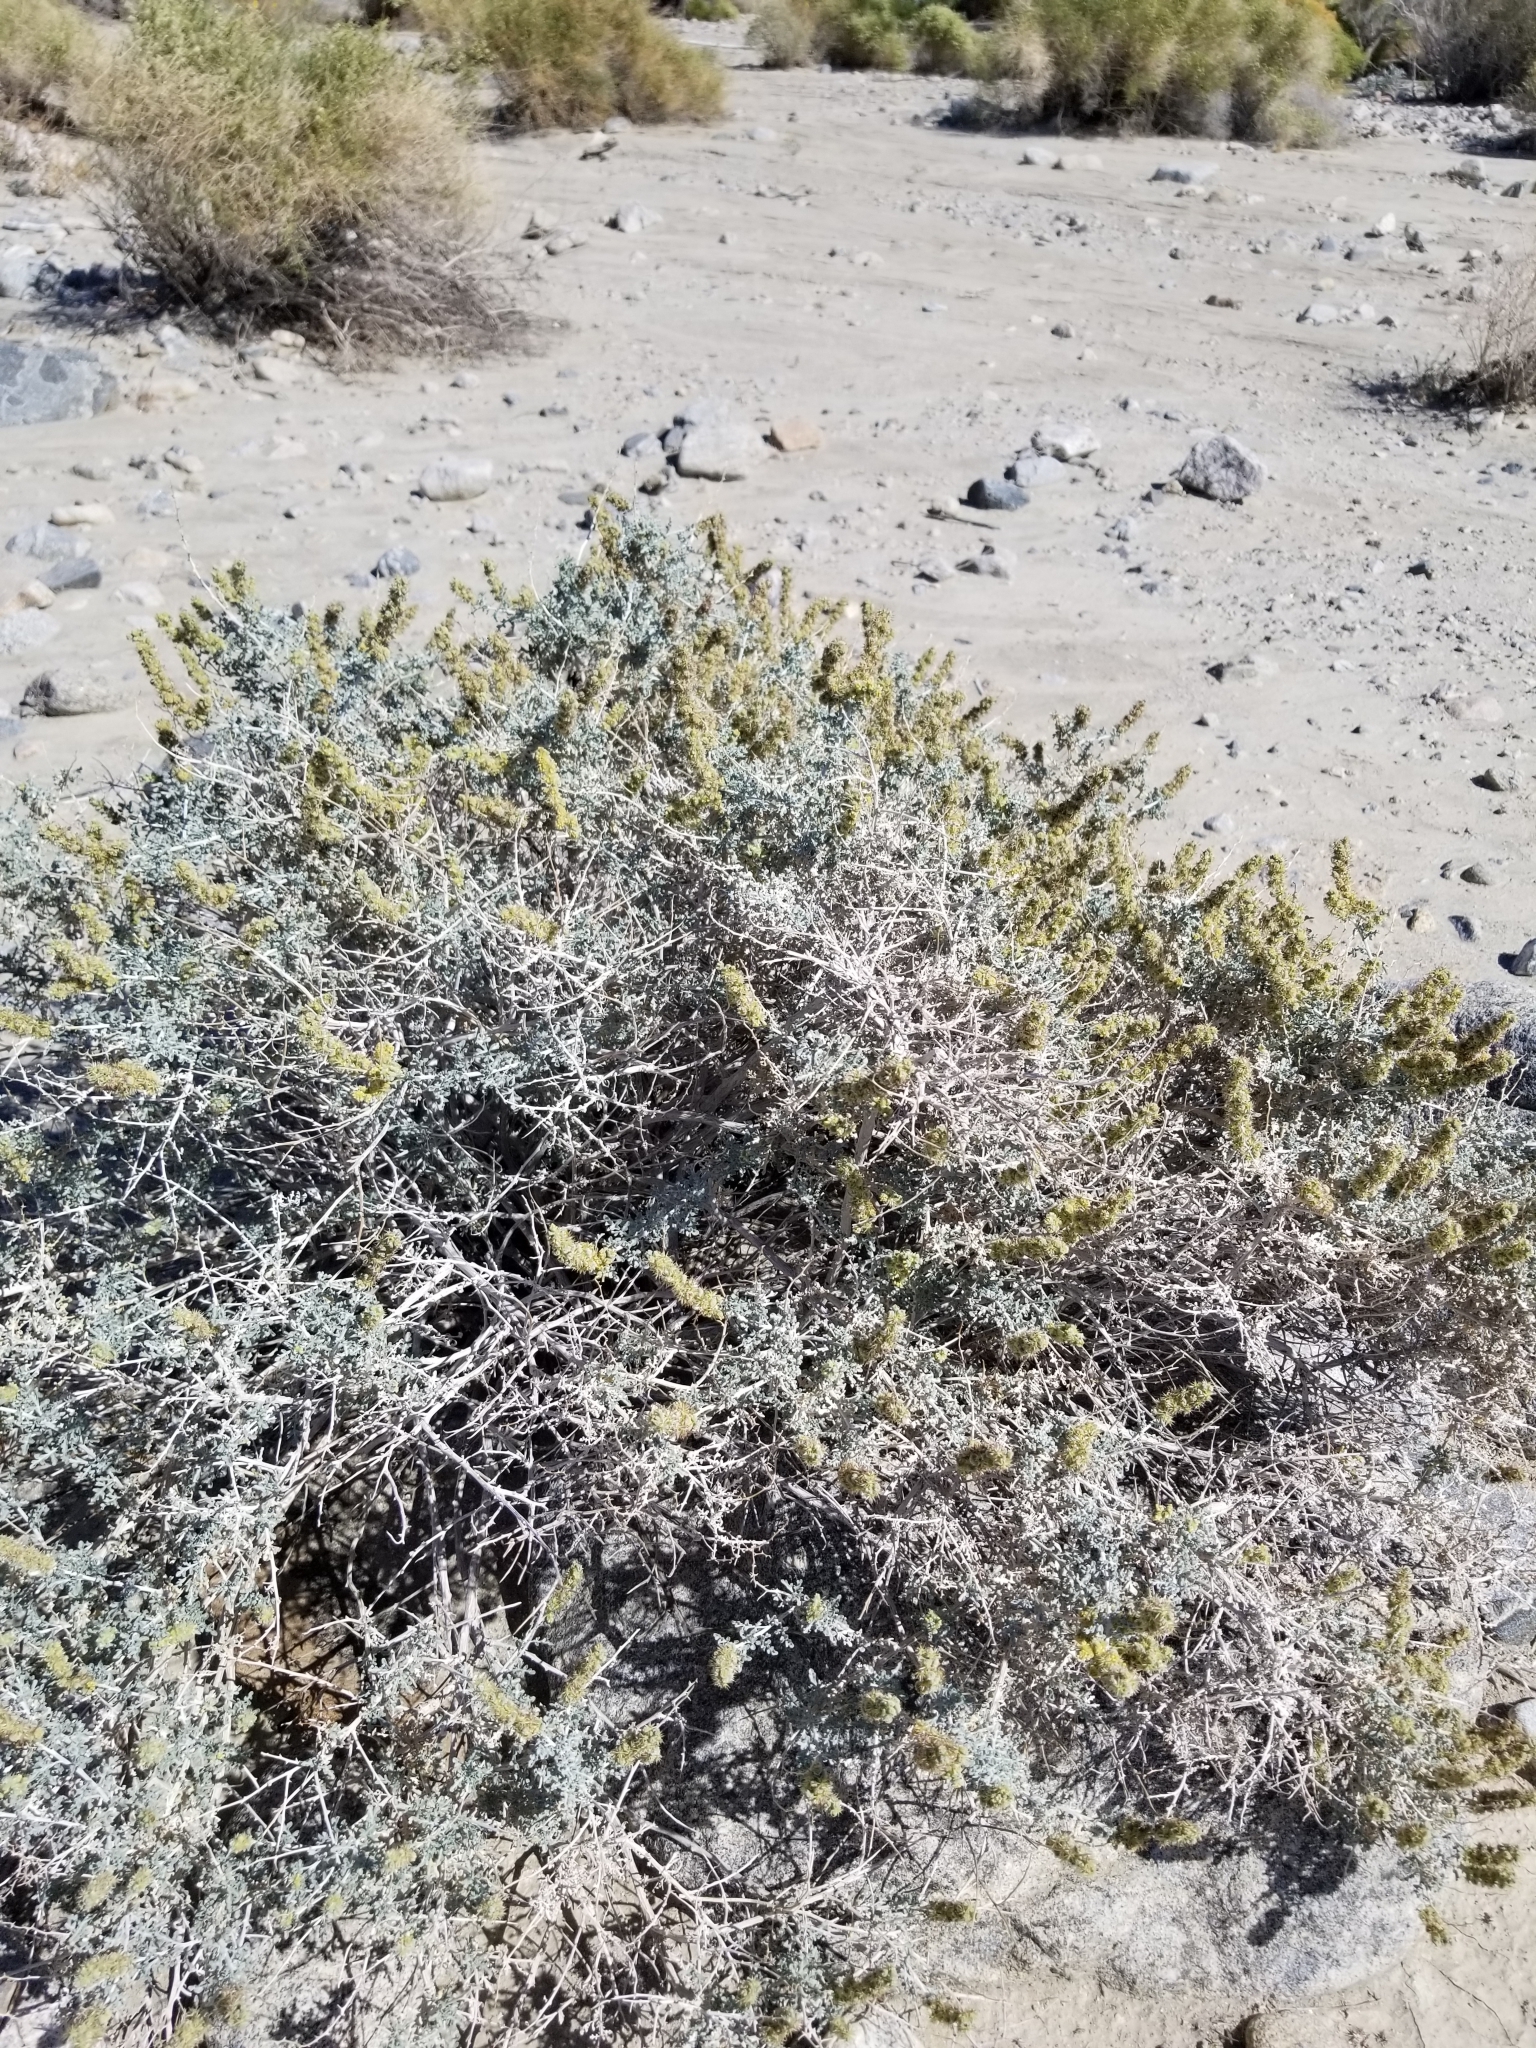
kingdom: Plantae
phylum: Tracheophyta
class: Magnoliopsida
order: Asterales
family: Asteraceae
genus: Ambrosia
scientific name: Ambrosia dumosa
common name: Bur-sage
